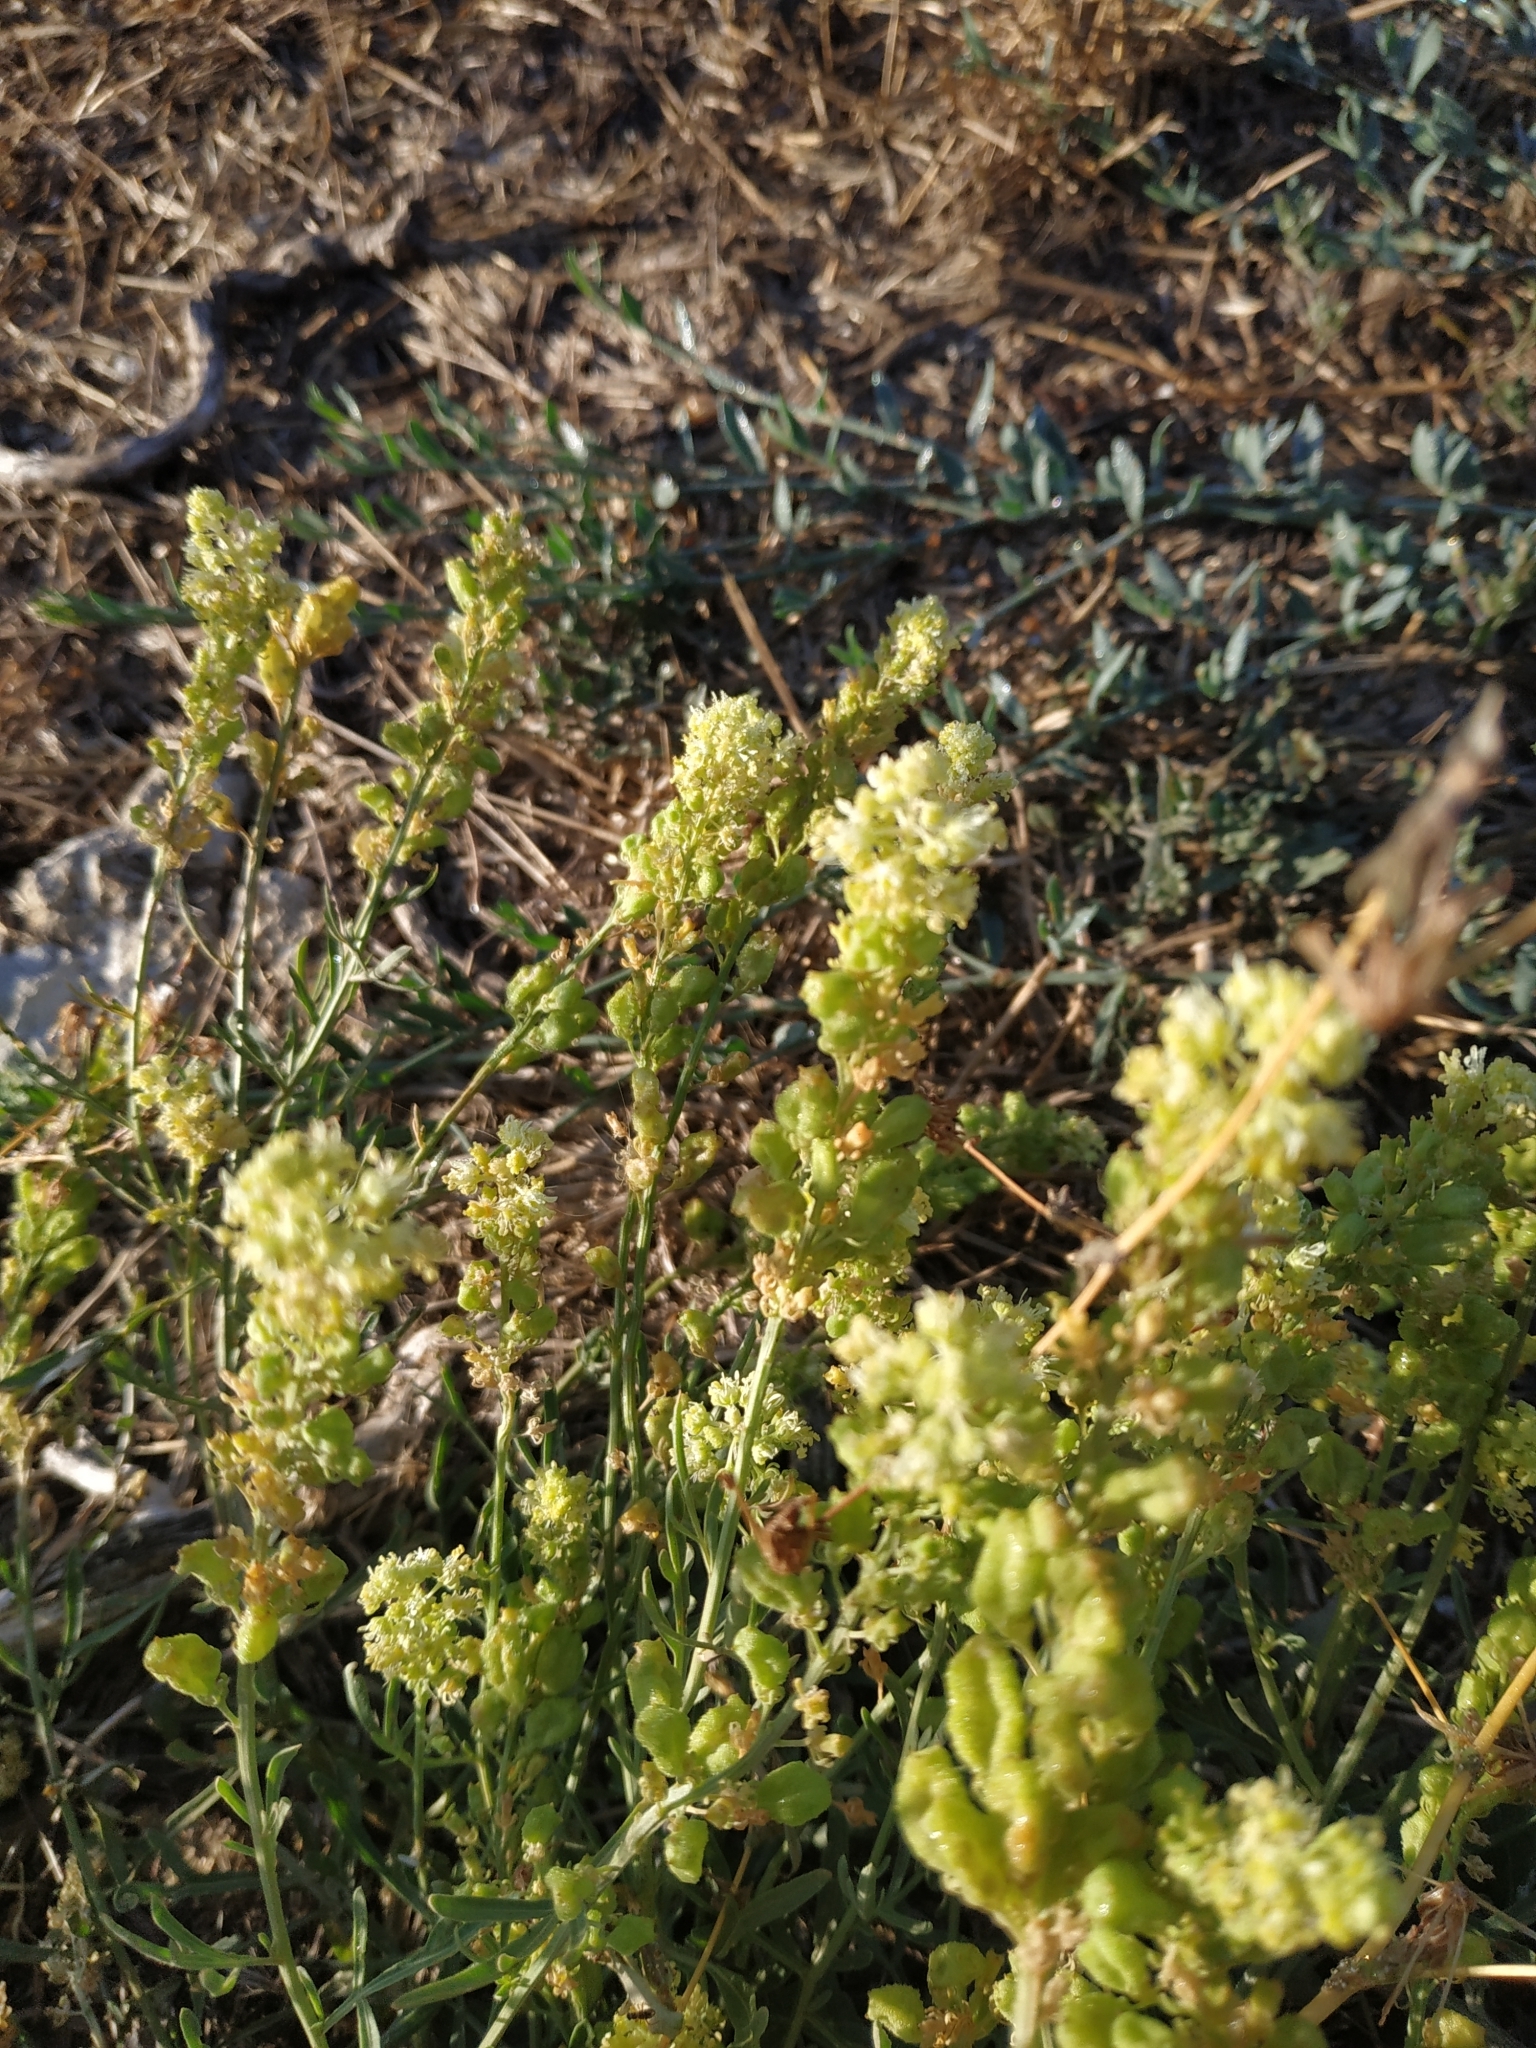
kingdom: Plantae
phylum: Tracheophyta
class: Magnoliopsida
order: Brassicales
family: Resedaceae
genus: Reseda
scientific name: Reseda lutea
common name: Wild mignonette
